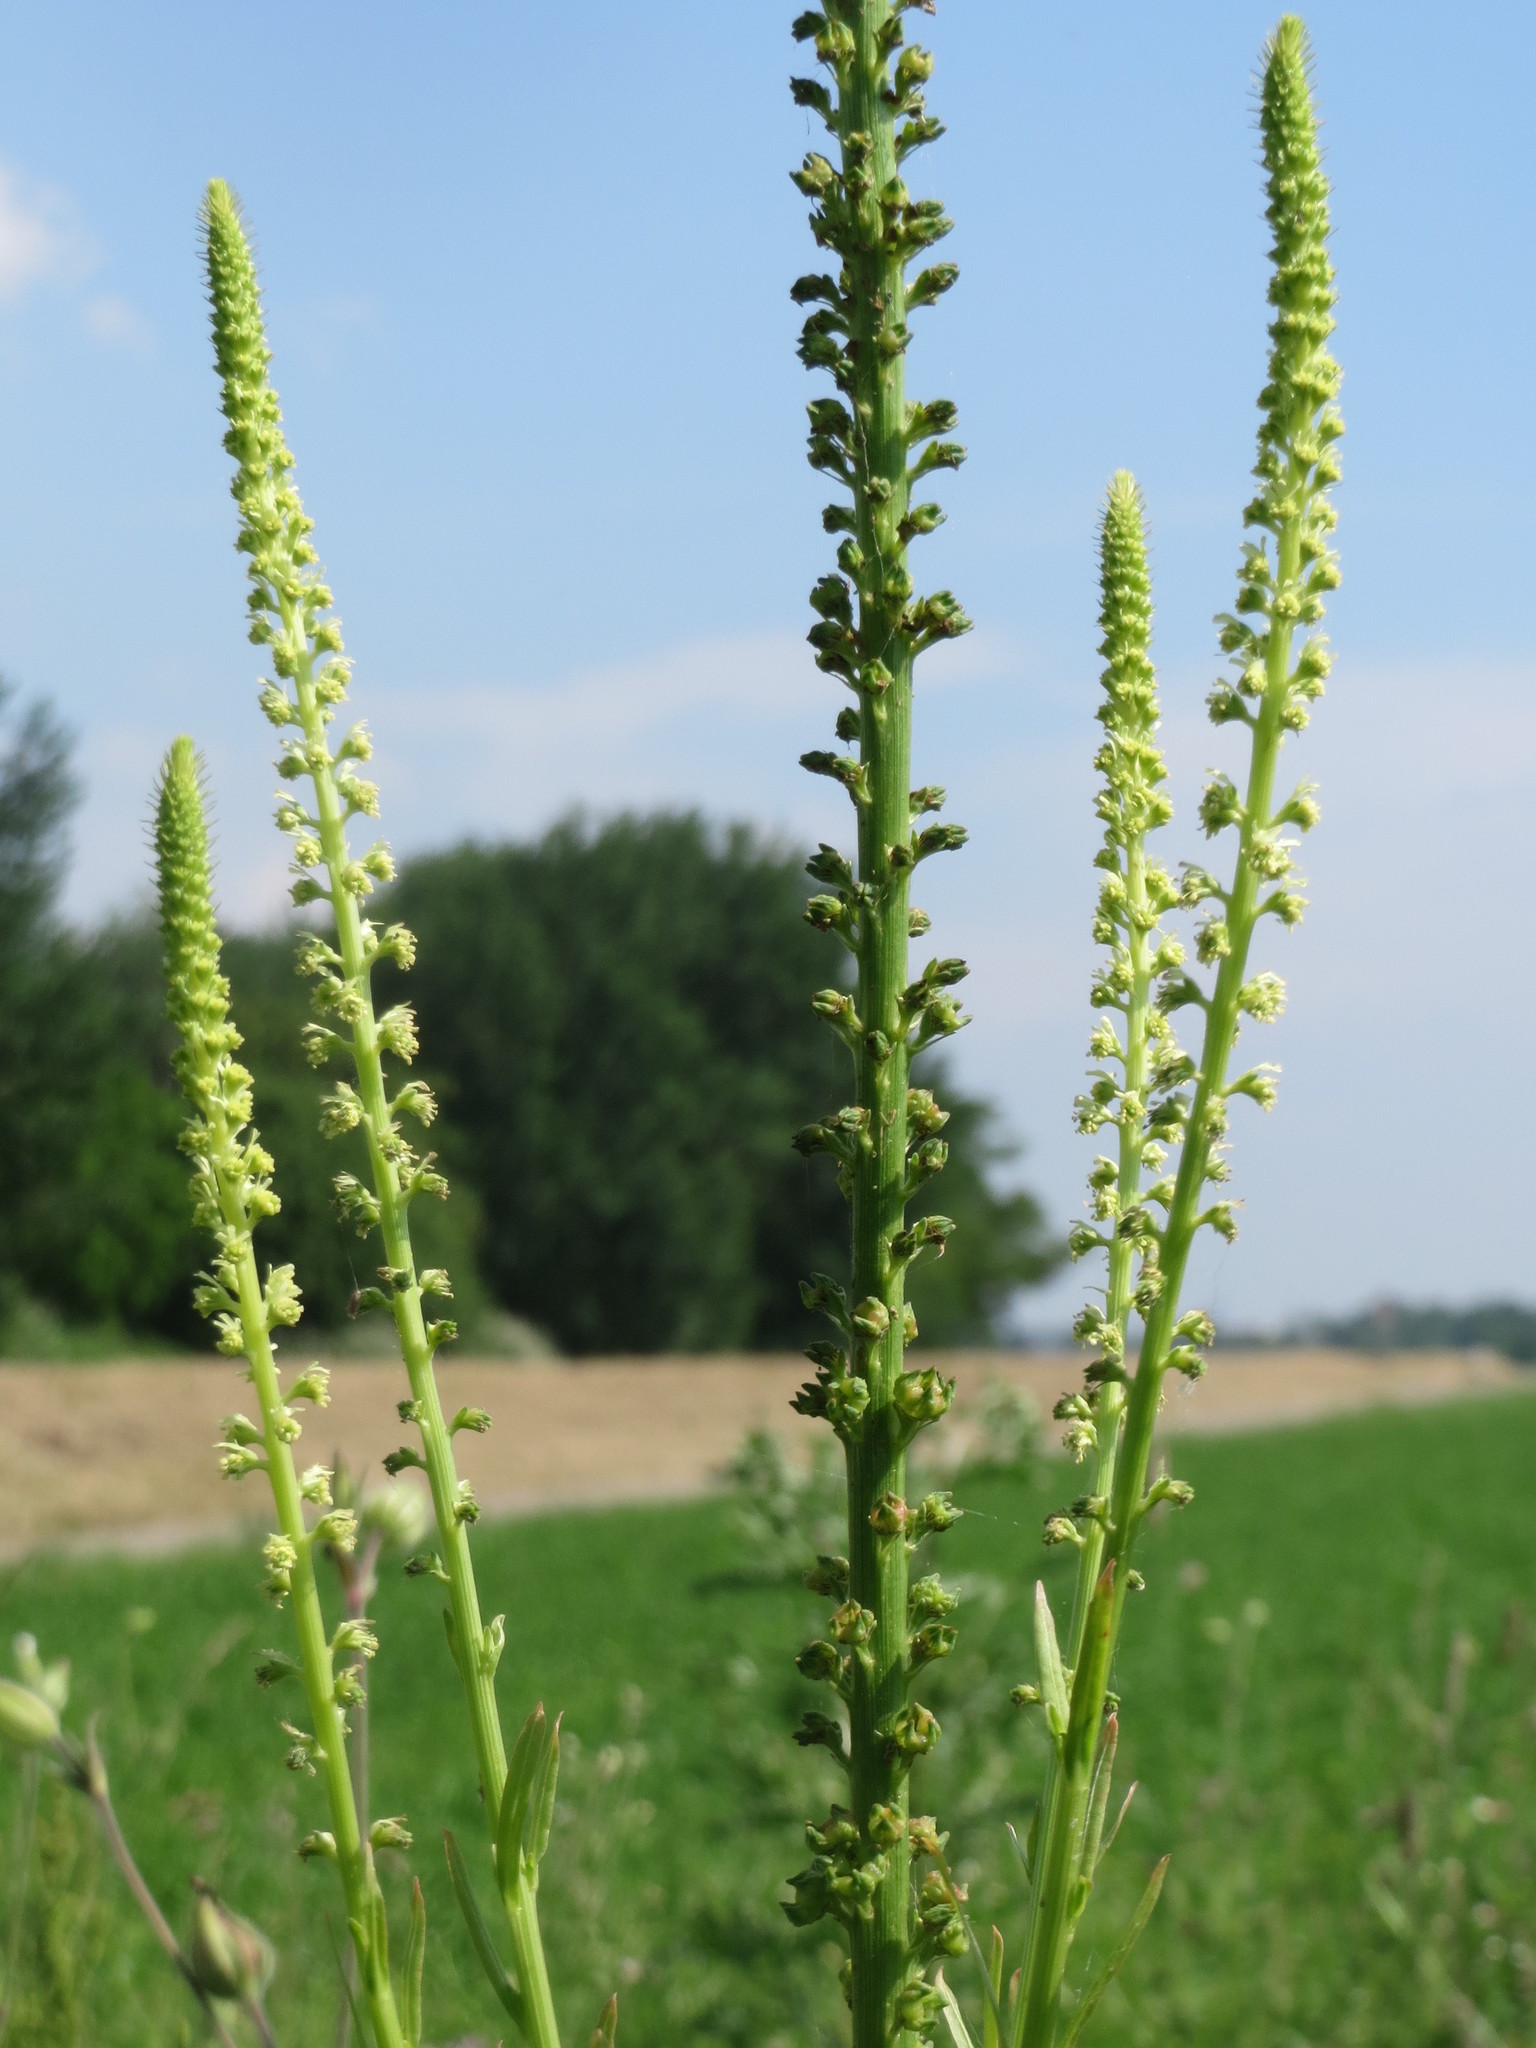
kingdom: Plantae
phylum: Tracheophyta
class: Magnoliopsida
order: Brassicales
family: Resedaceae
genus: Reseda
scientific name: Reseda luteola
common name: Weld
